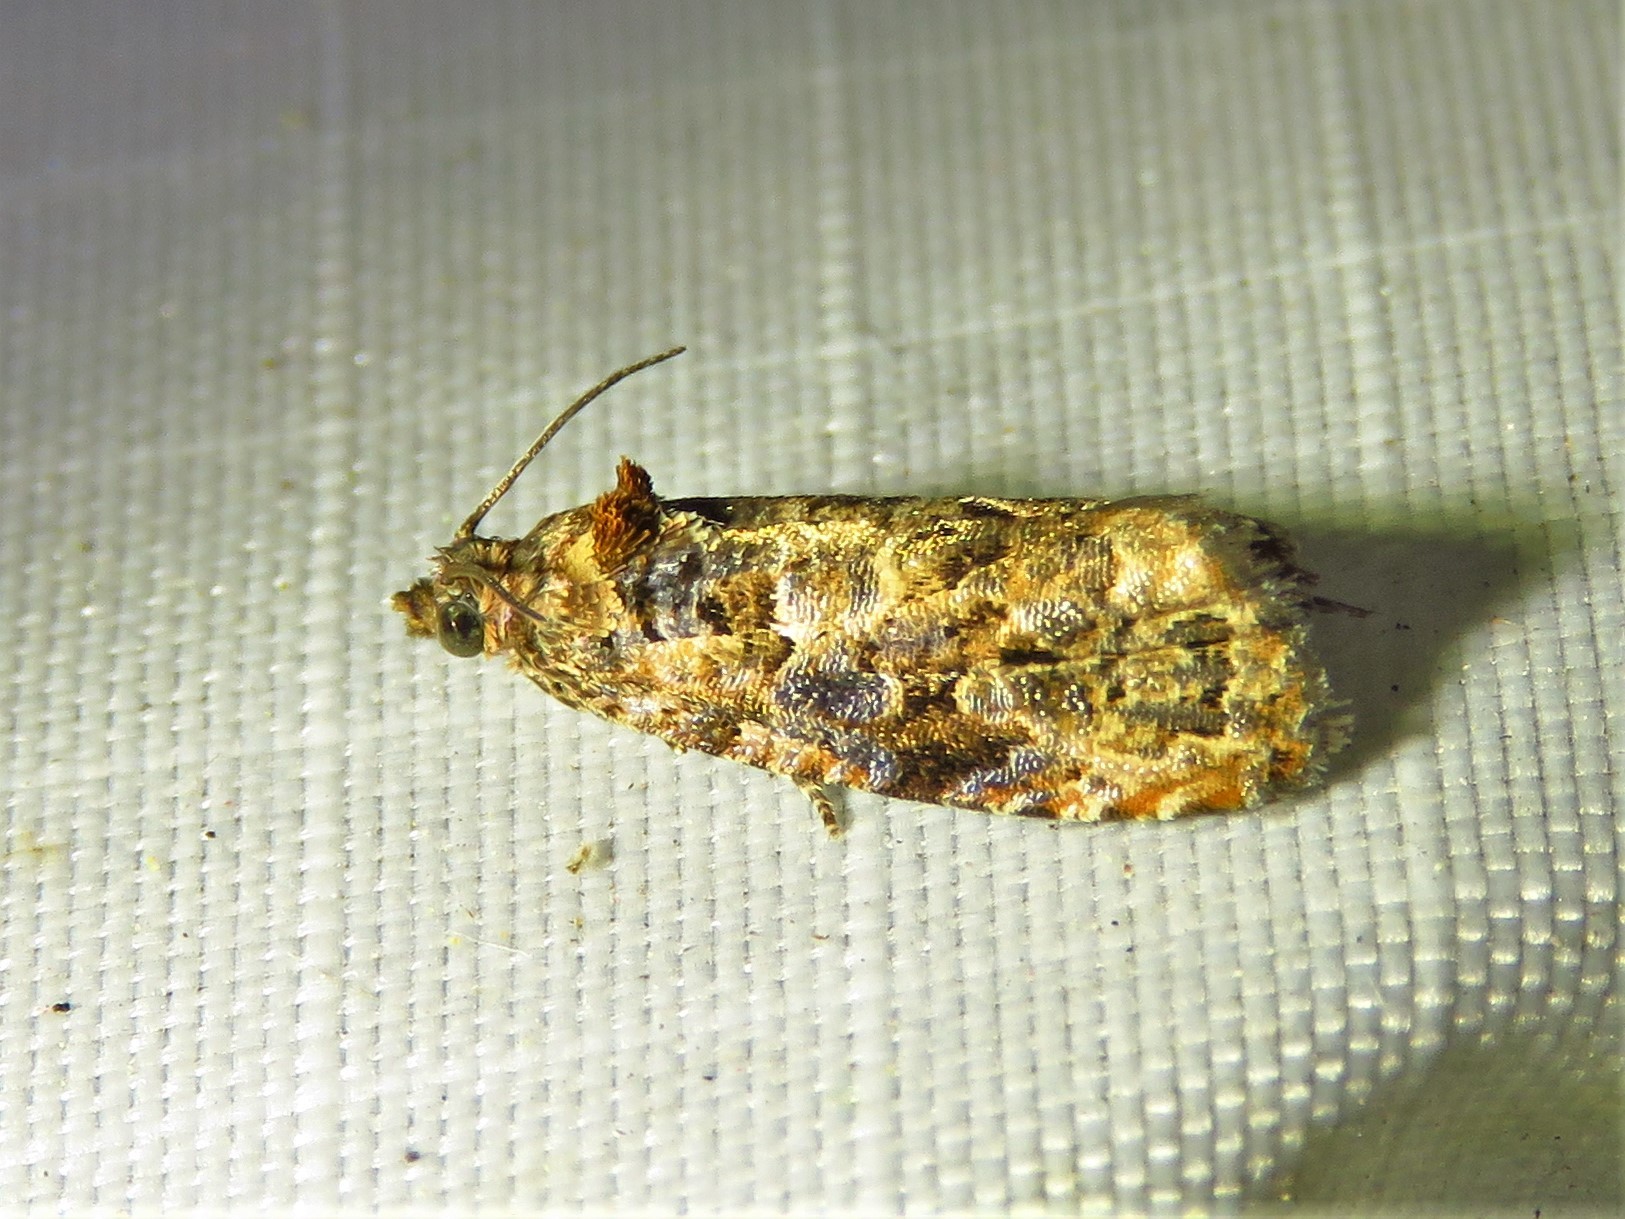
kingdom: Animalia
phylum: Arthropoda
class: Insecta
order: Lepidoptera
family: Tortricidae
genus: Endothenia
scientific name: Endothenia hebesana
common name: Verbena bud moth
